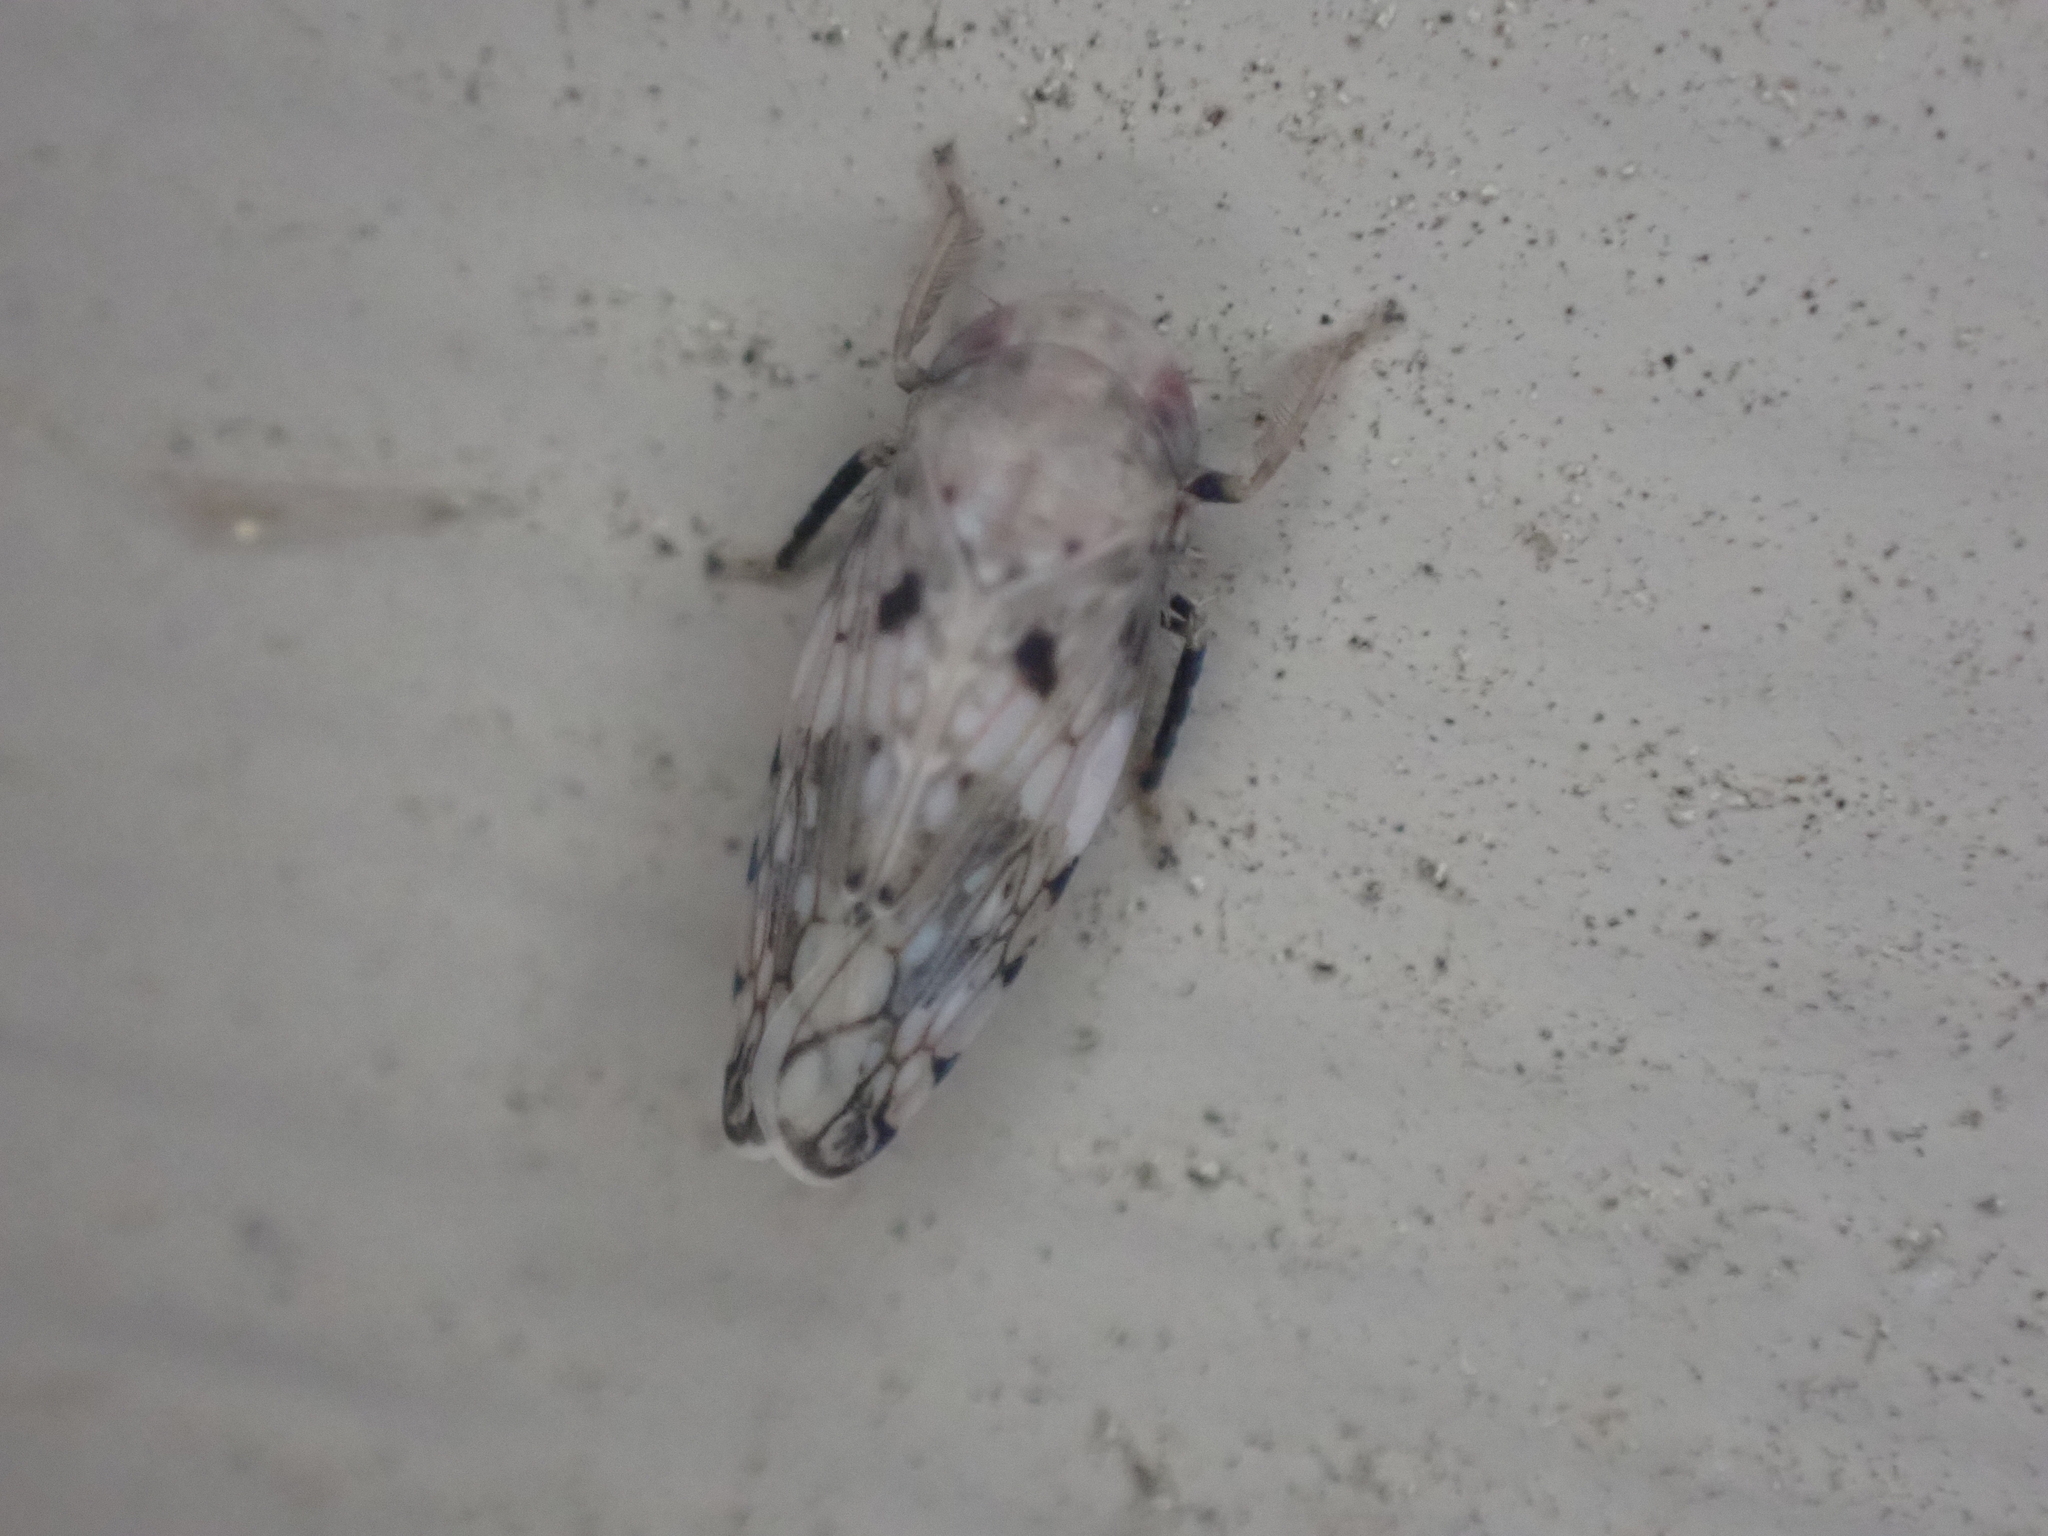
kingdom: Animalia
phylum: Arthropoda
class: Insecta
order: Hemiptera
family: Cicadellidae
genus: Menosoma
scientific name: Menosoma cinctum
